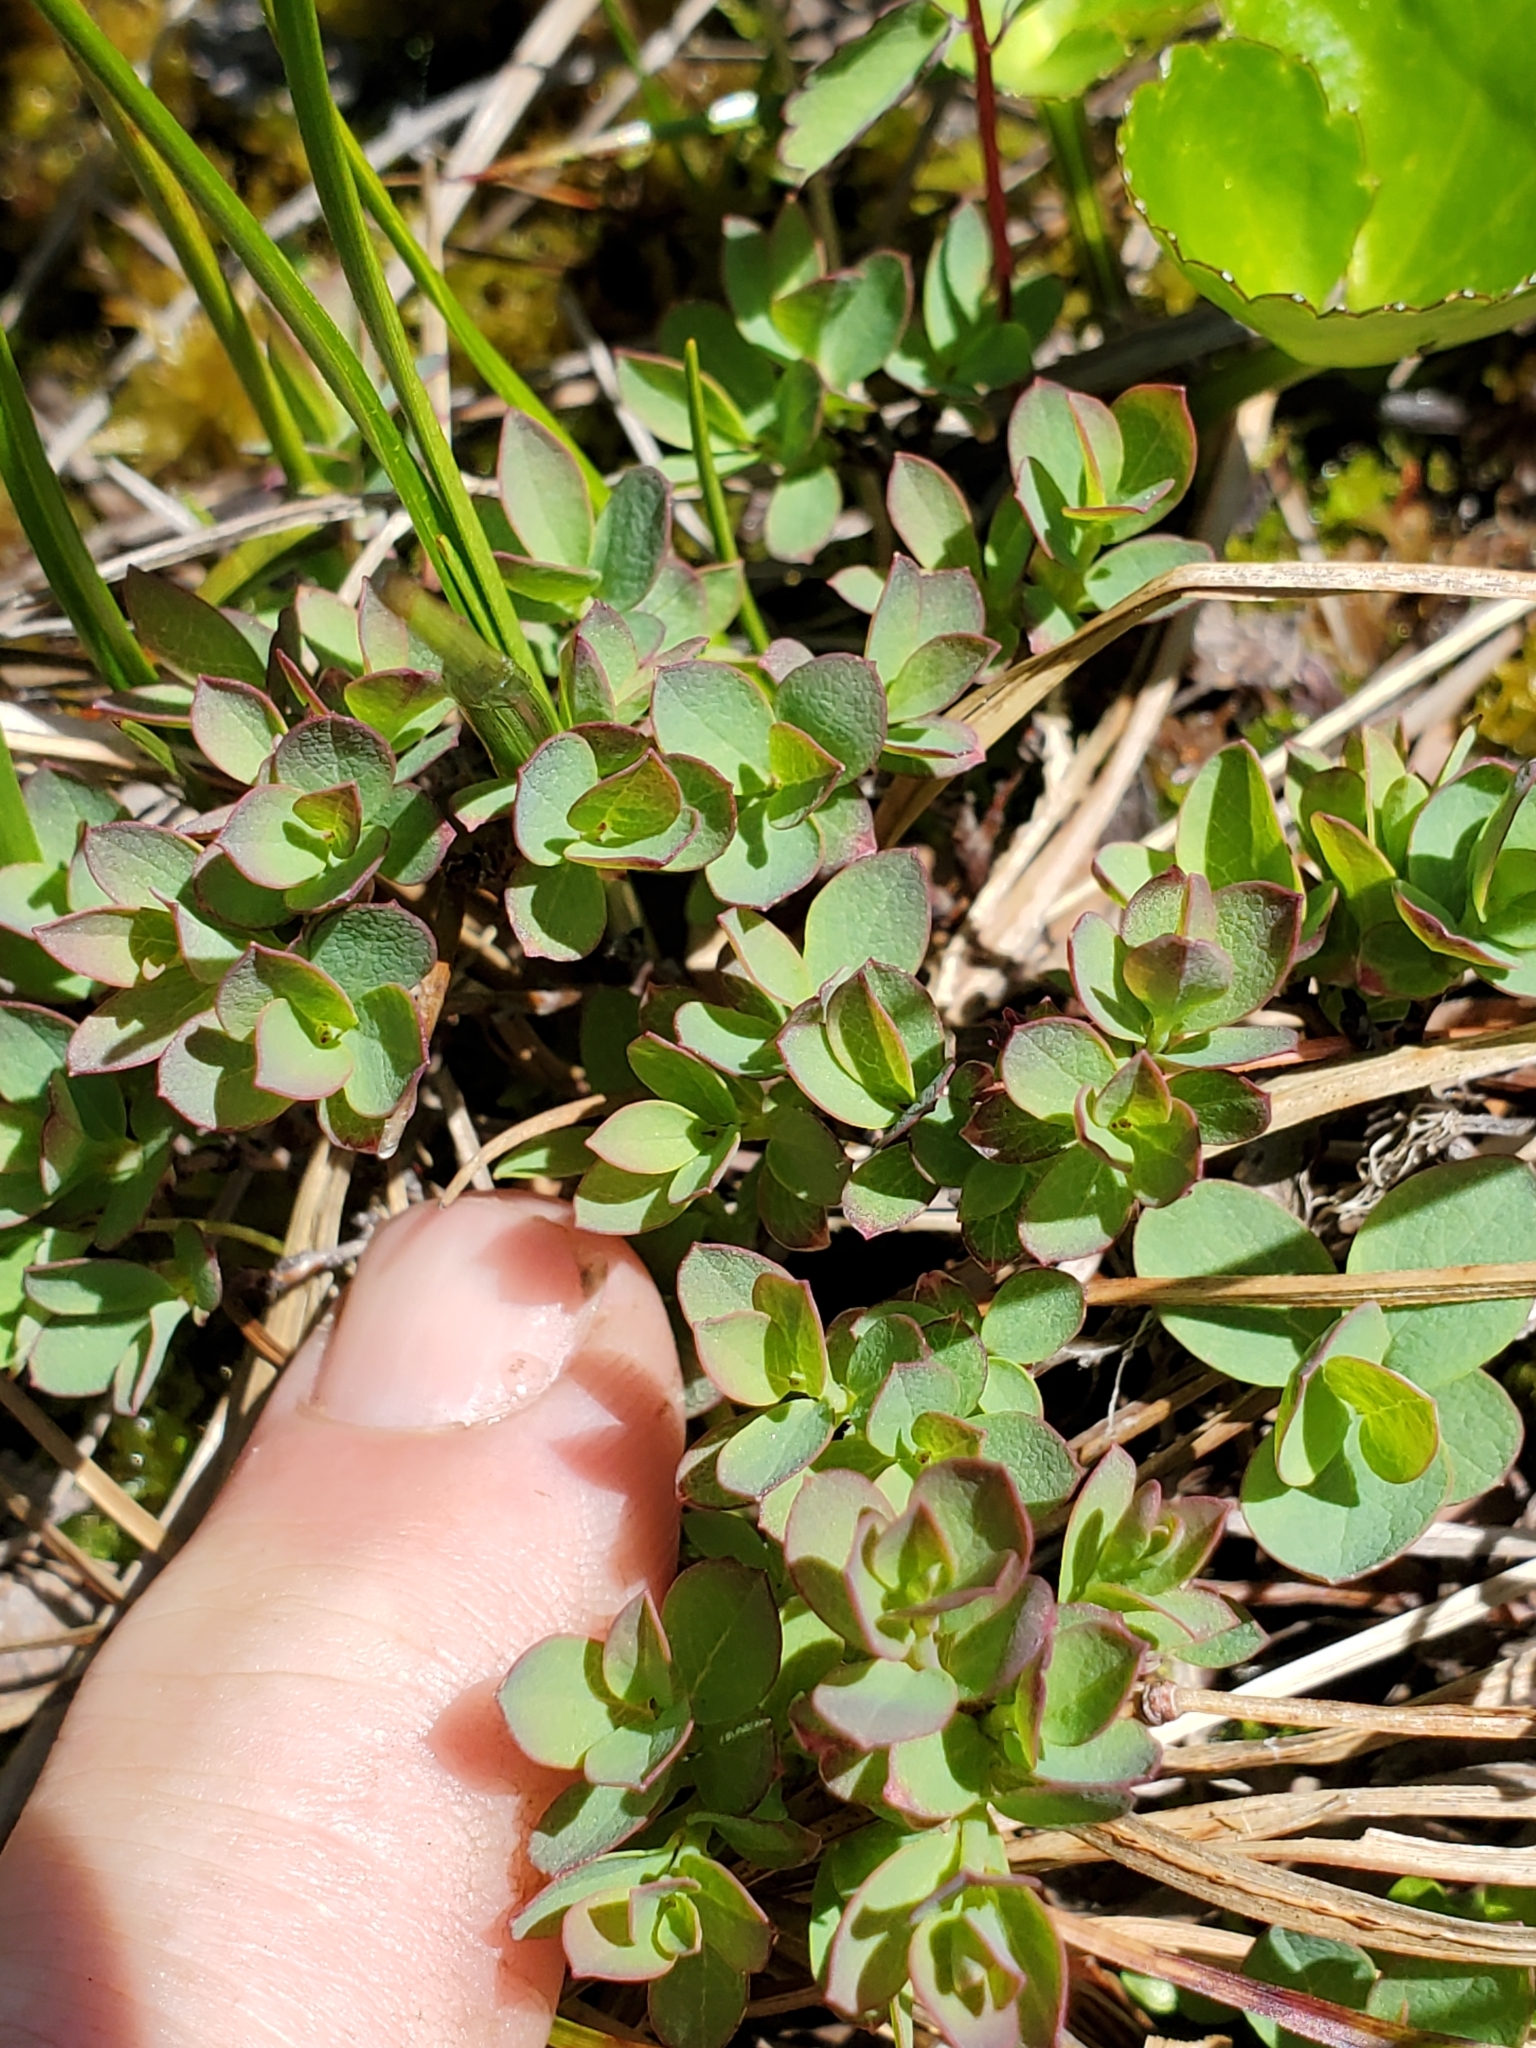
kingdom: Plantae
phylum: Tracheophyta
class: Magnoliopsida
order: Ericales
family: Ericaceae
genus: Vaccinium
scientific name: Vaccinium uliginosum
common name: Bog bilberry
